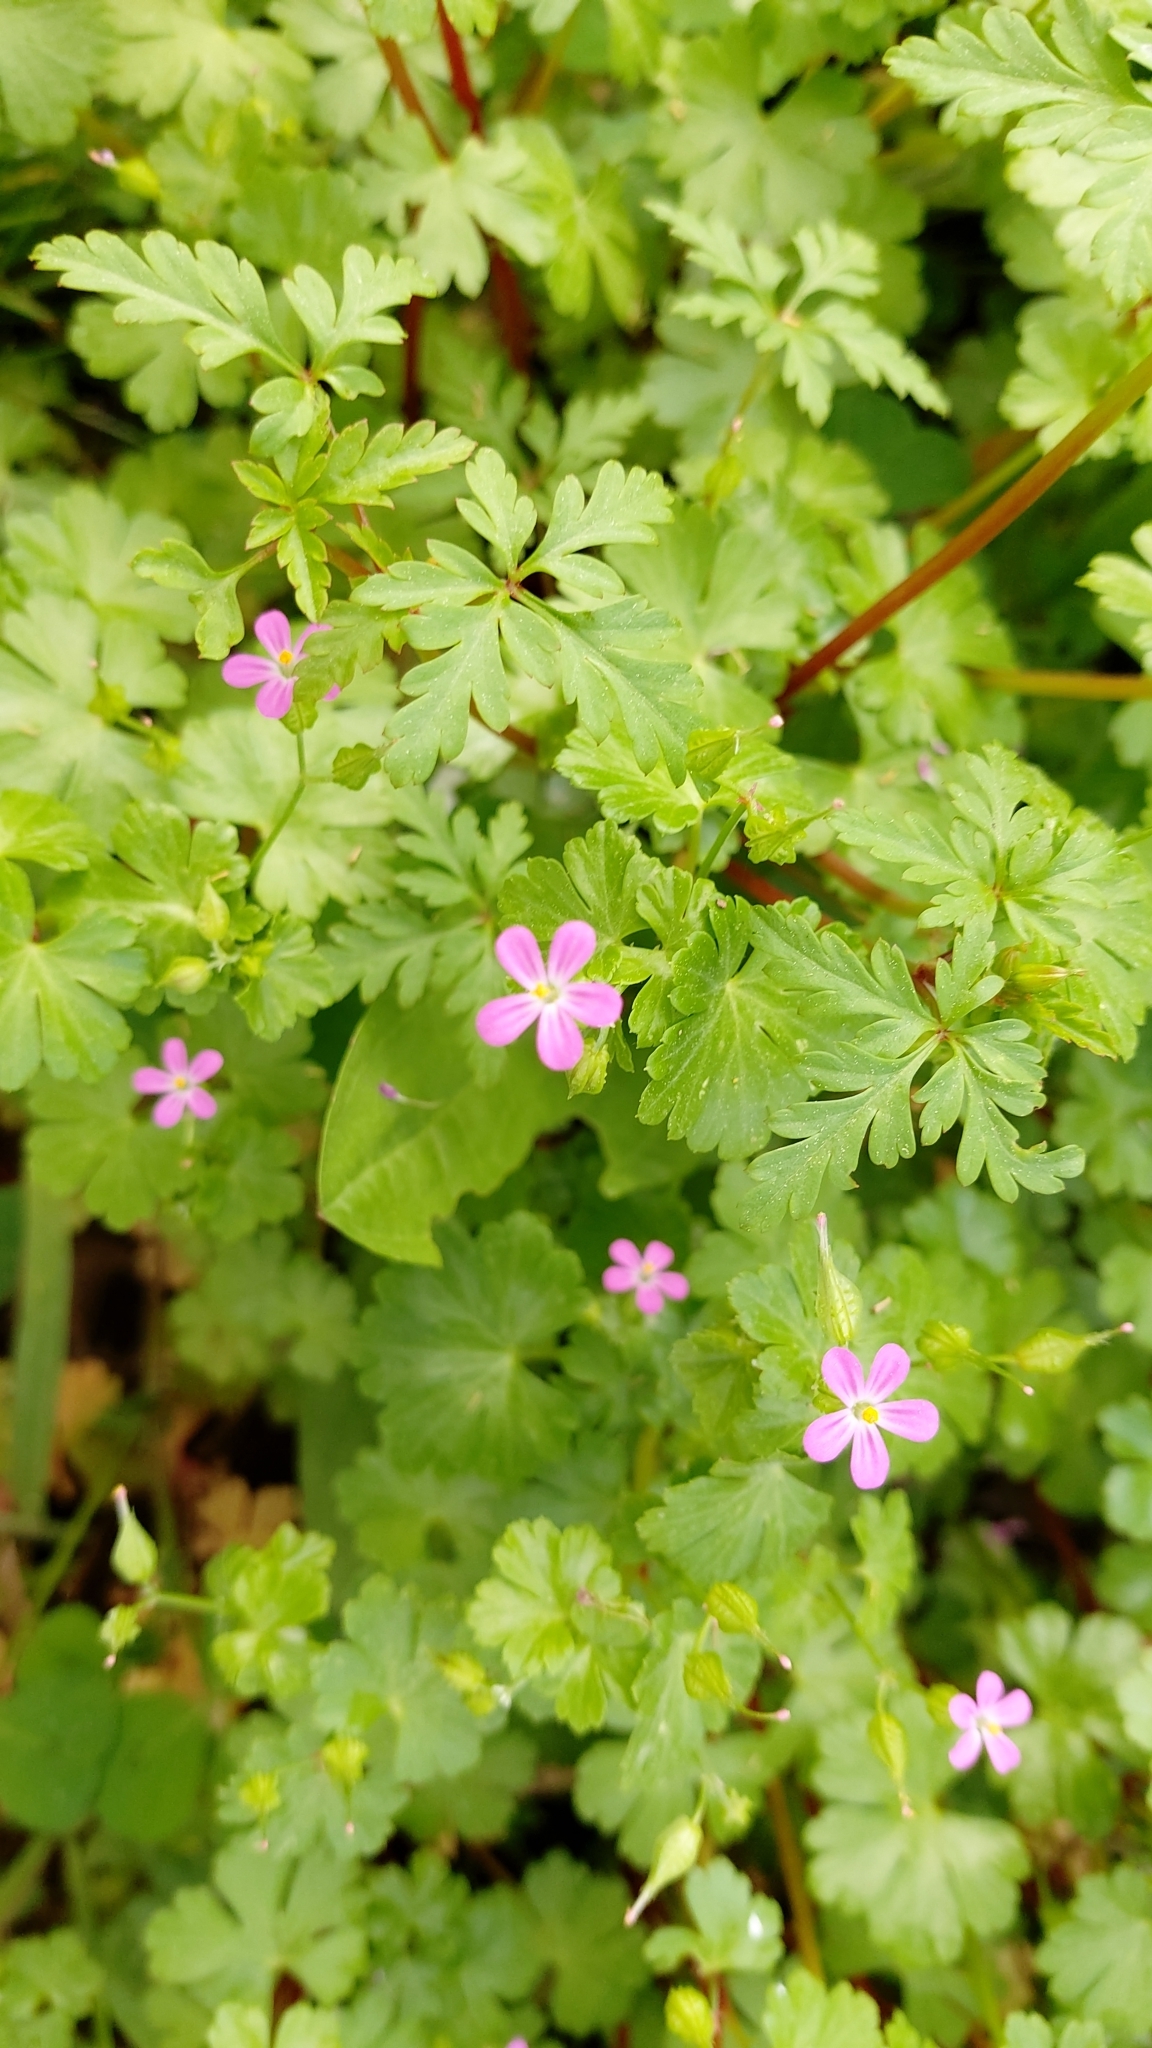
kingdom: Plantae
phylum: Tracheophyta
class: Magnoliopsida
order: Geraniales
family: Geraniaceae
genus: Geranium
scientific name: Geranium lucidum
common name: Shining crane's-bill
